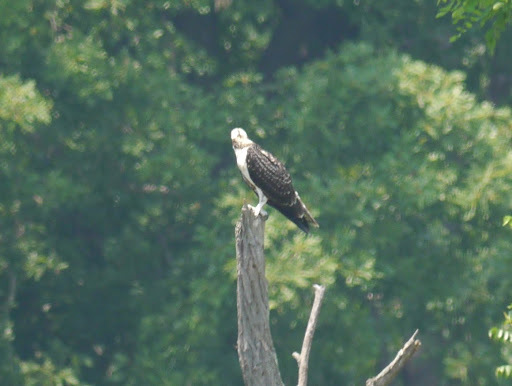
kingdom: Animalia
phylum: Chordata
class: Aves
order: Accipitriformes
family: Pandionidae
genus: Pandion
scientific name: Pandion haliaetus
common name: Osprey
